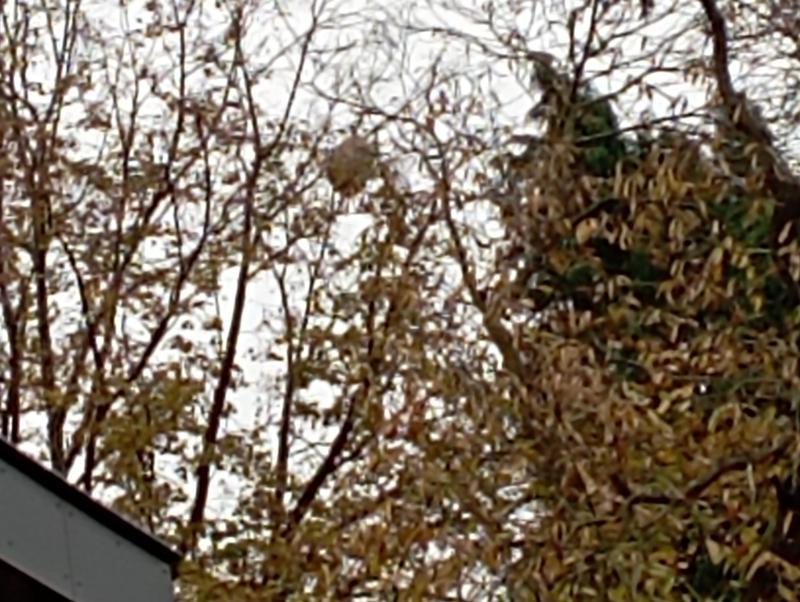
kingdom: Animalia
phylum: Arthropoda
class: Insecta
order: Hymenoptera
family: Vespidae
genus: Vespa
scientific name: Vespa velutina
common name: Asian hornet
